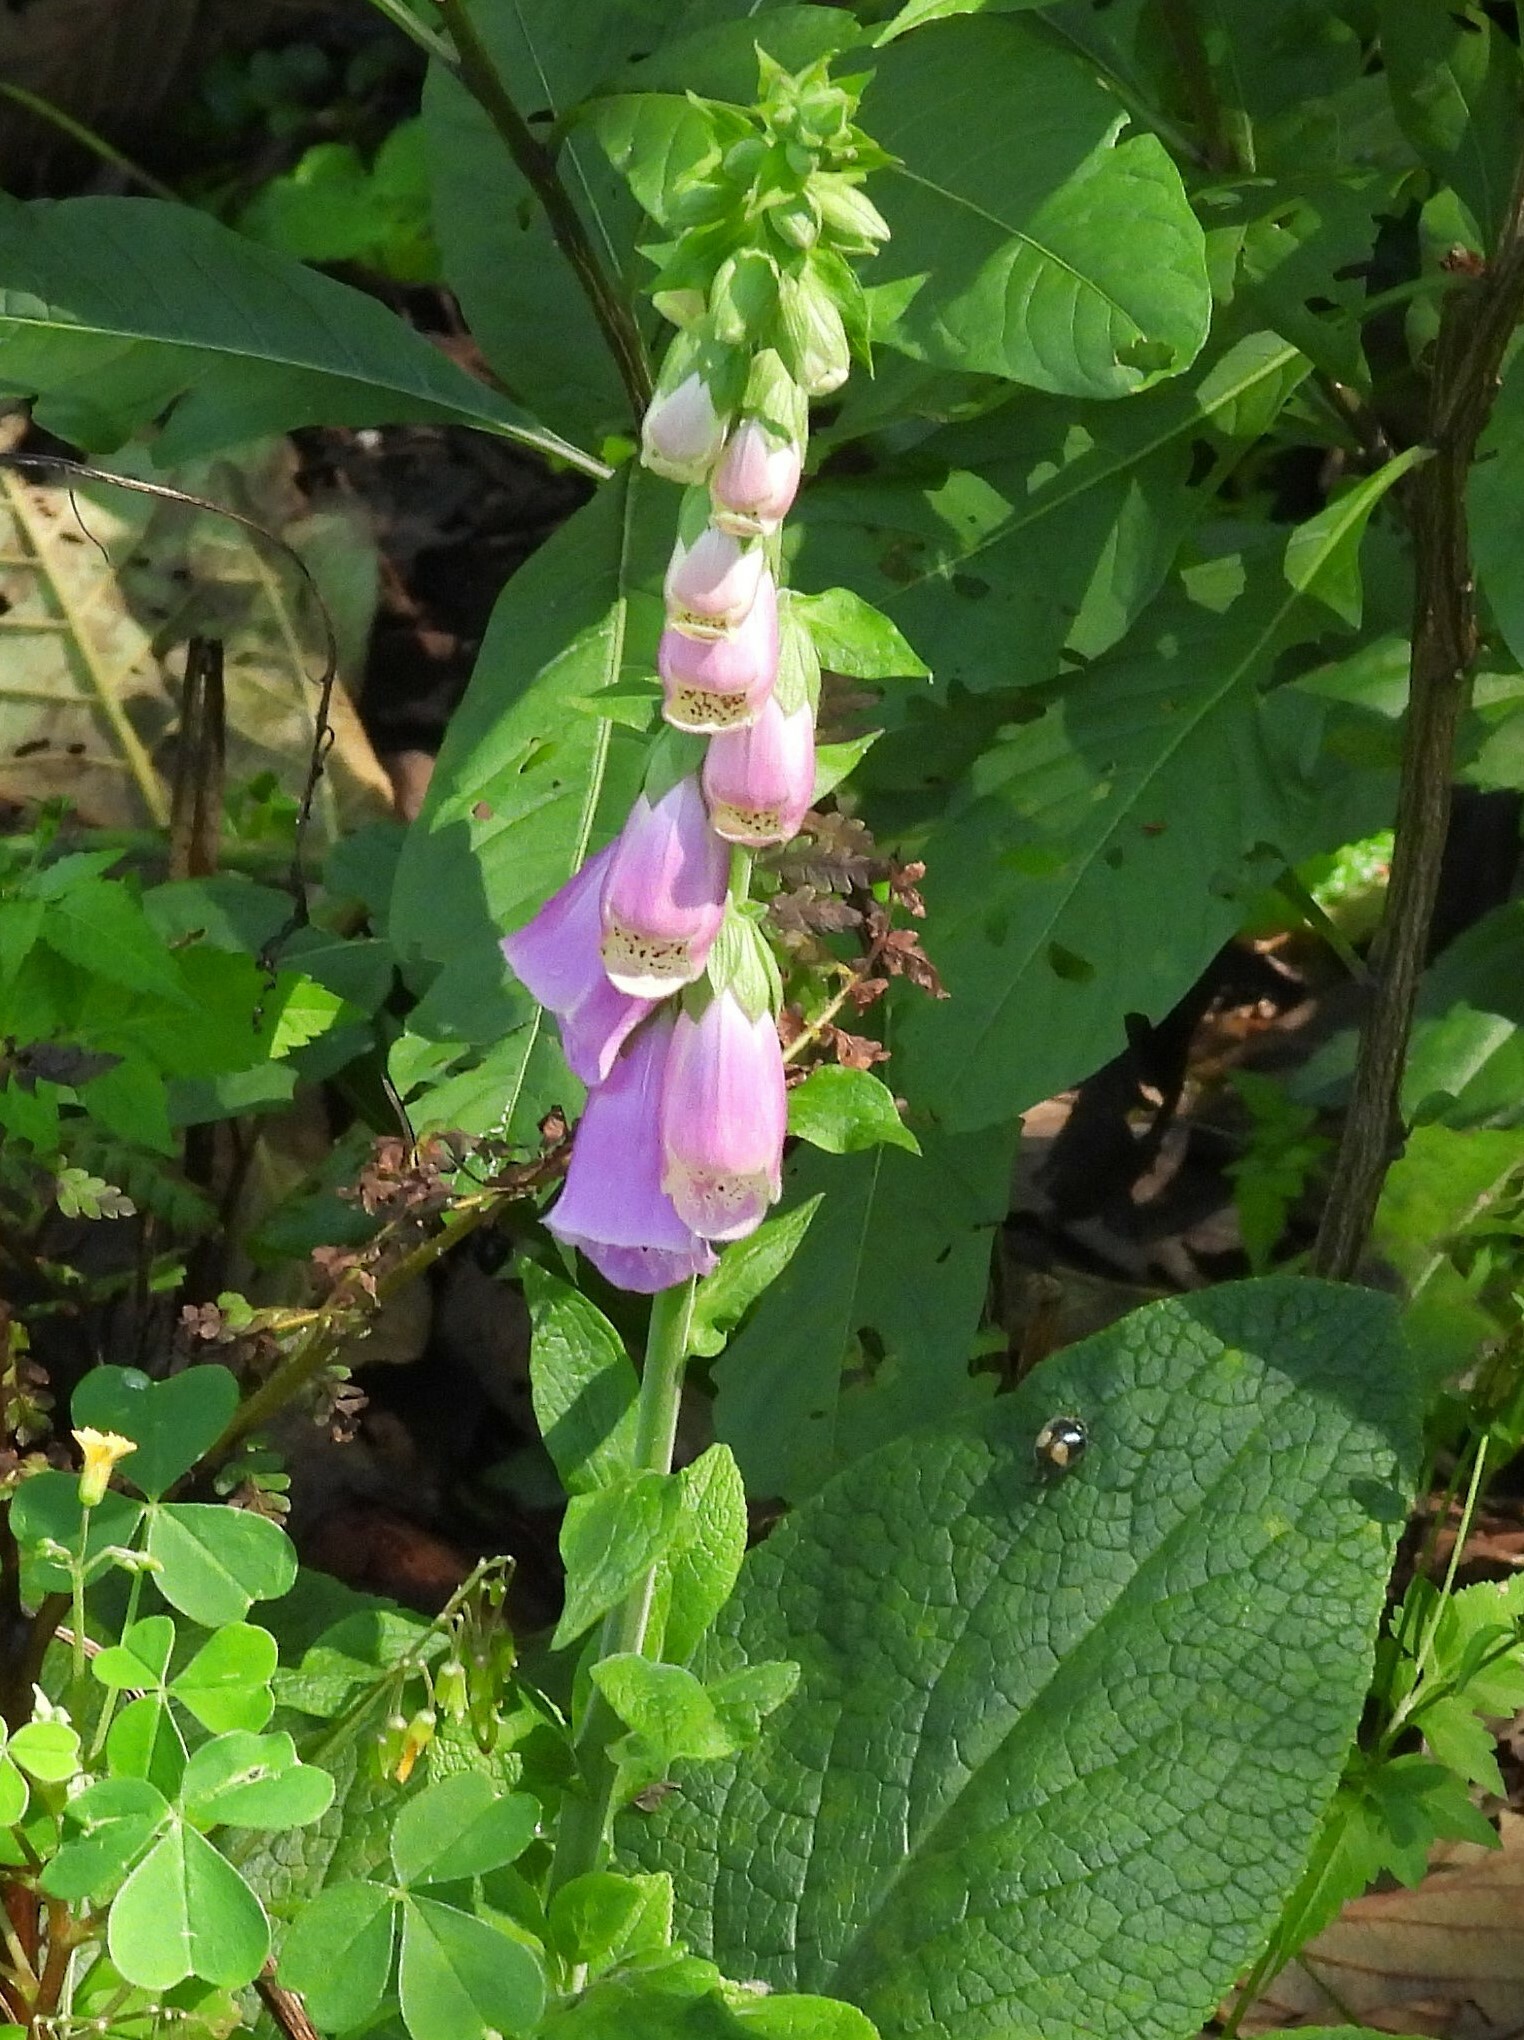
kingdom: Plantae
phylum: Tracheophyta
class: Magnoliopsida
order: Lamiales
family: Plantaginaceae
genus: Digitalis
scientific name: Digitalis purpurea
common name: Foxglove
